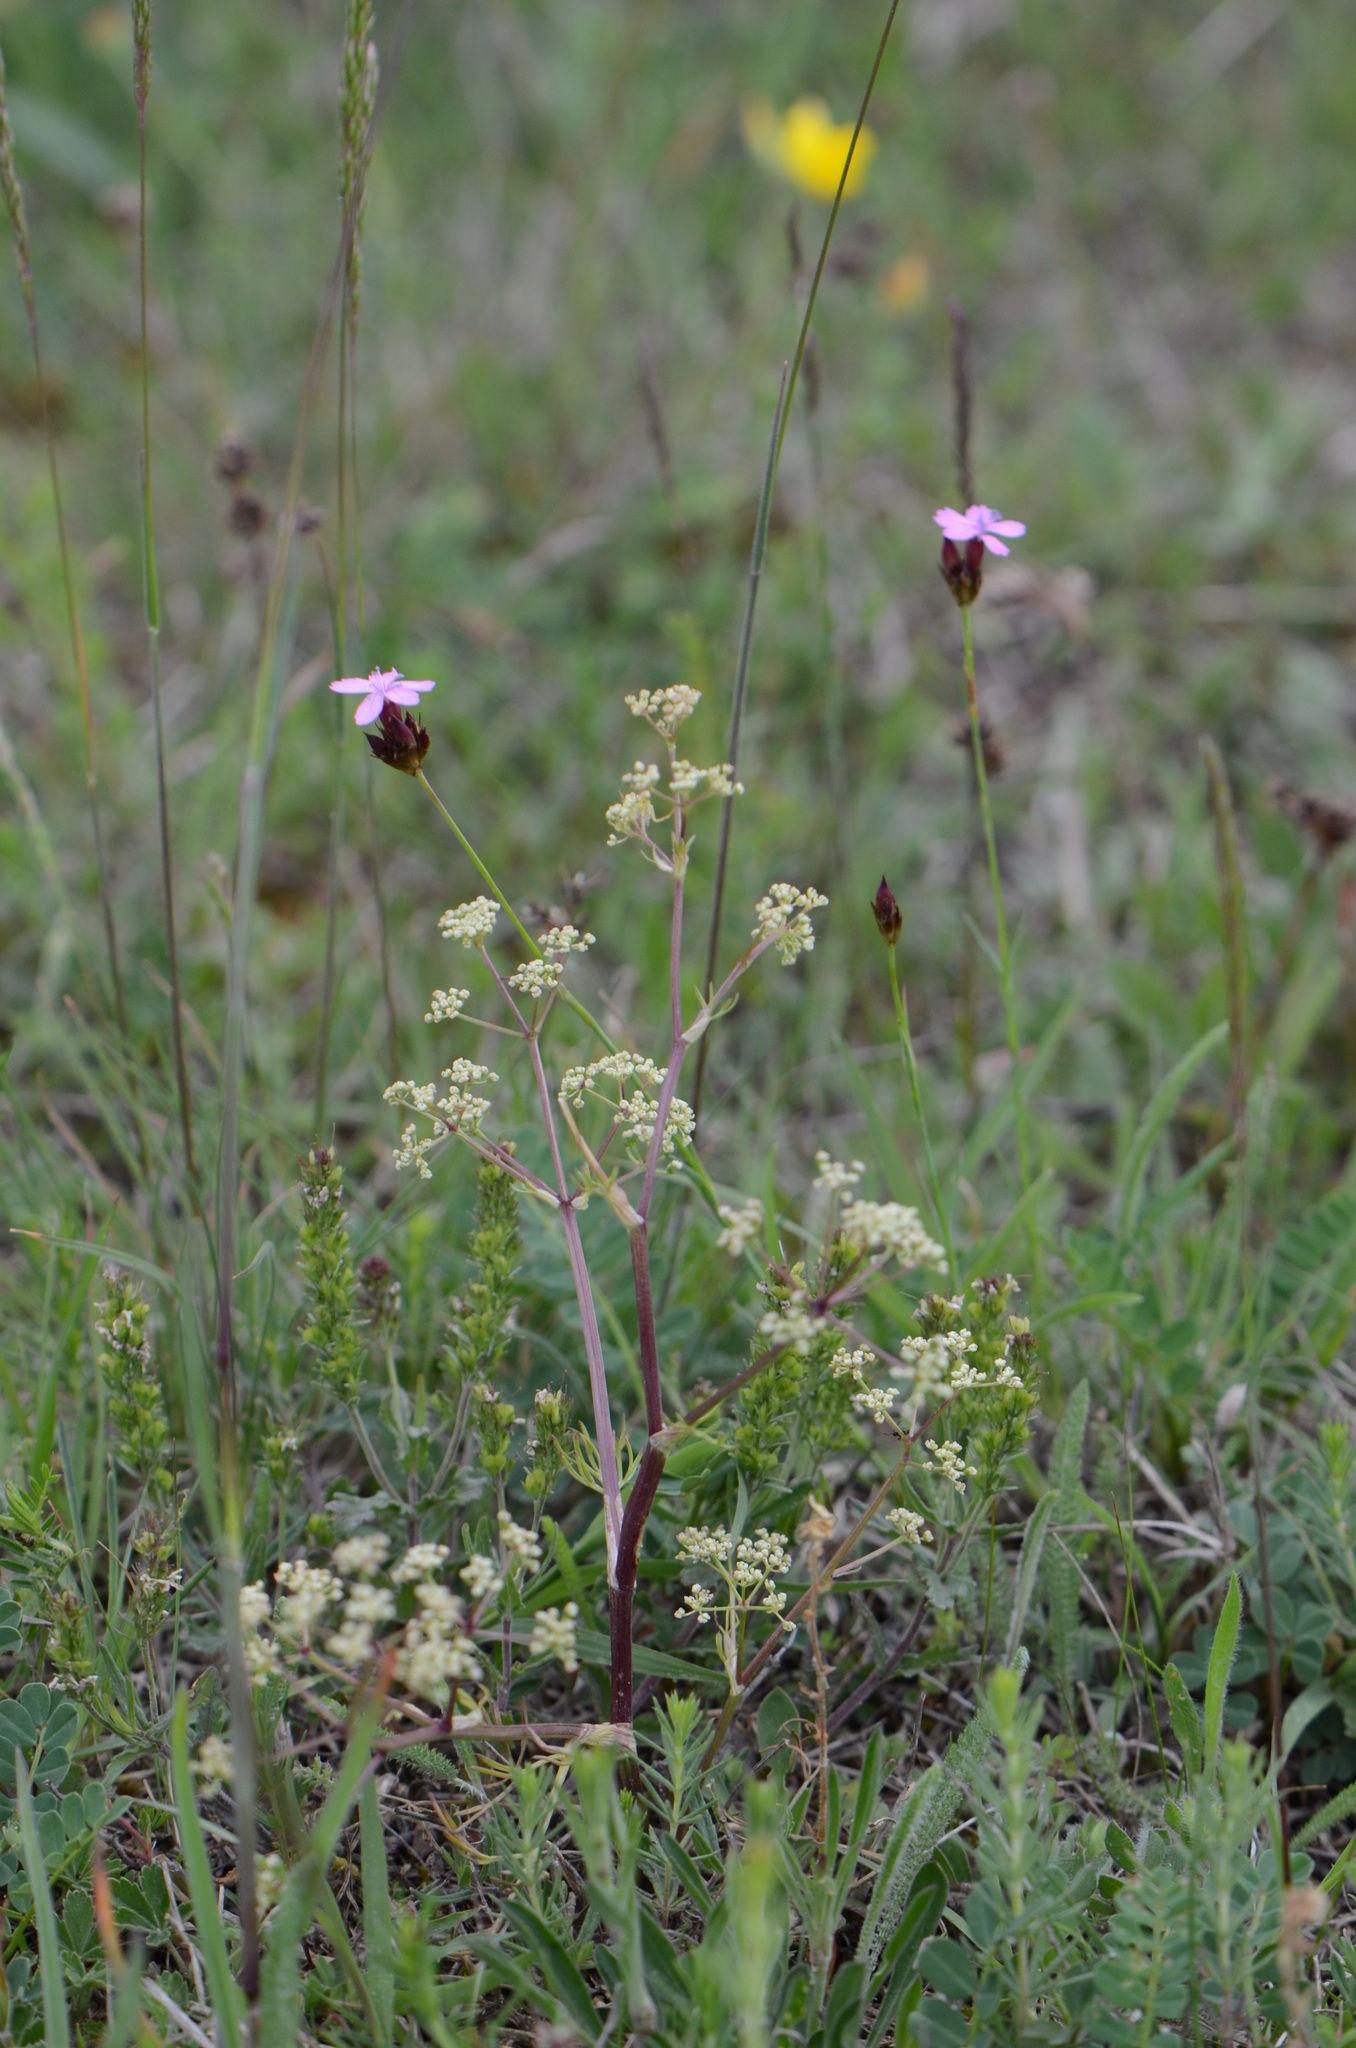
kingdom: Plantae
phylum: Tracheophyta
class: Magnoliopsida
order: Apiales
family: Apiaceae
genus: Trinia
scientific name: Trinia glauca
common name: Honewort
